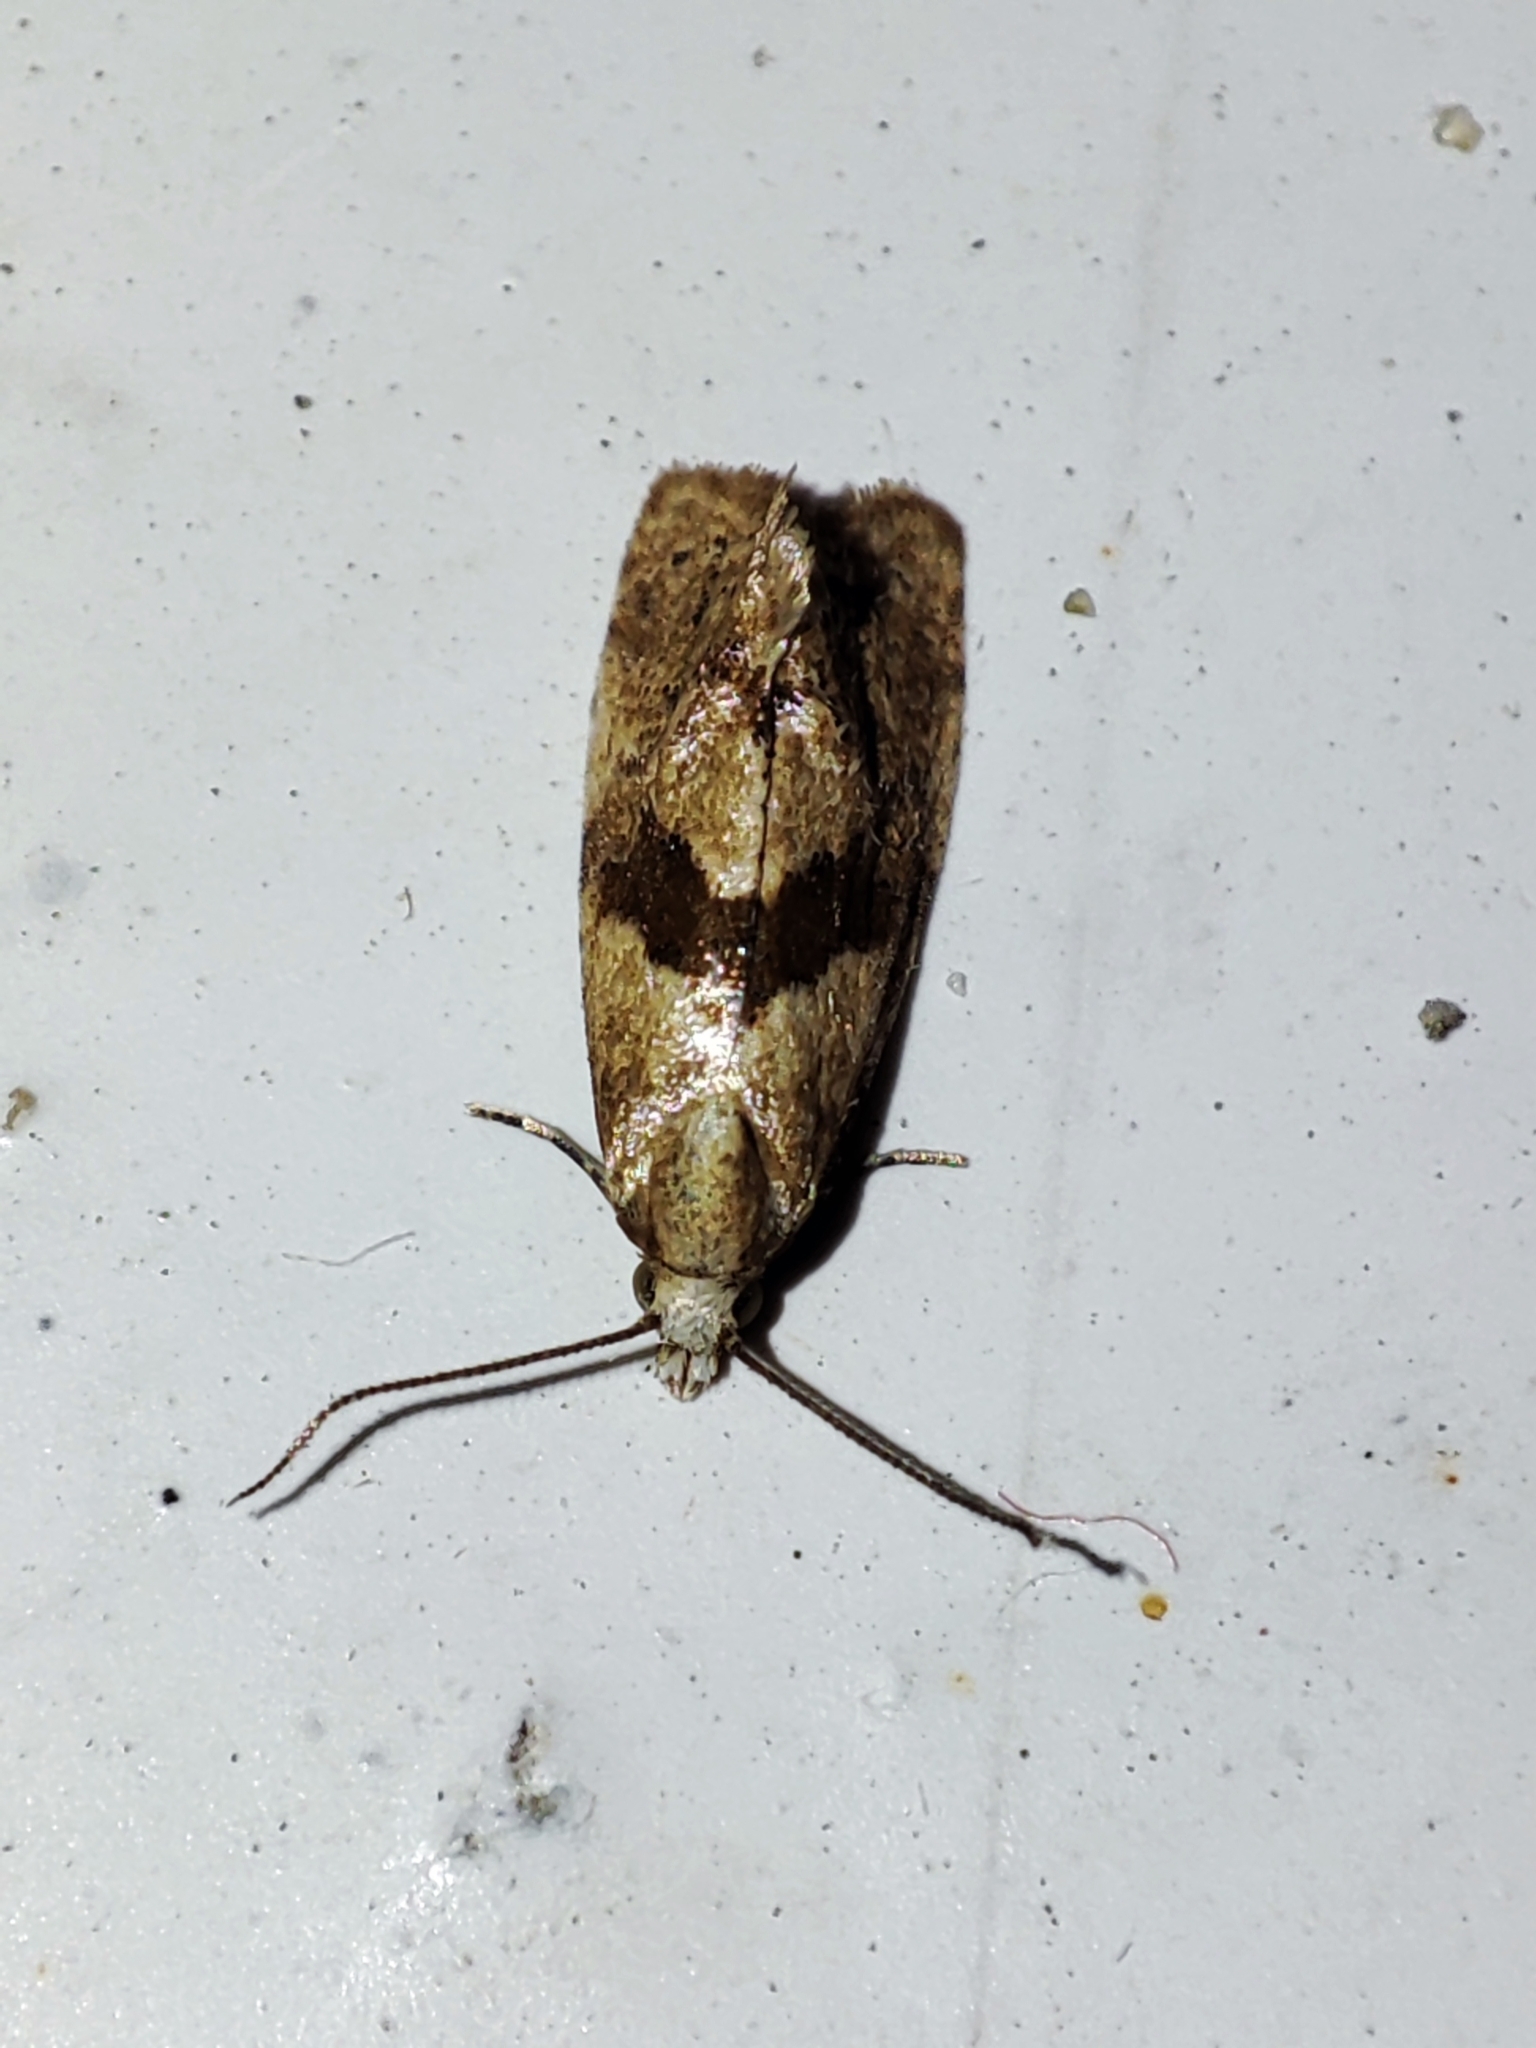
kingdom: Animalia
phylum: Arthropoda
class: Insecta
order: Lepidoptera
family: Tortricidae
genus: Cochylidia
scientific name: Cochylidia implicitana
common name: Chamomile conch
